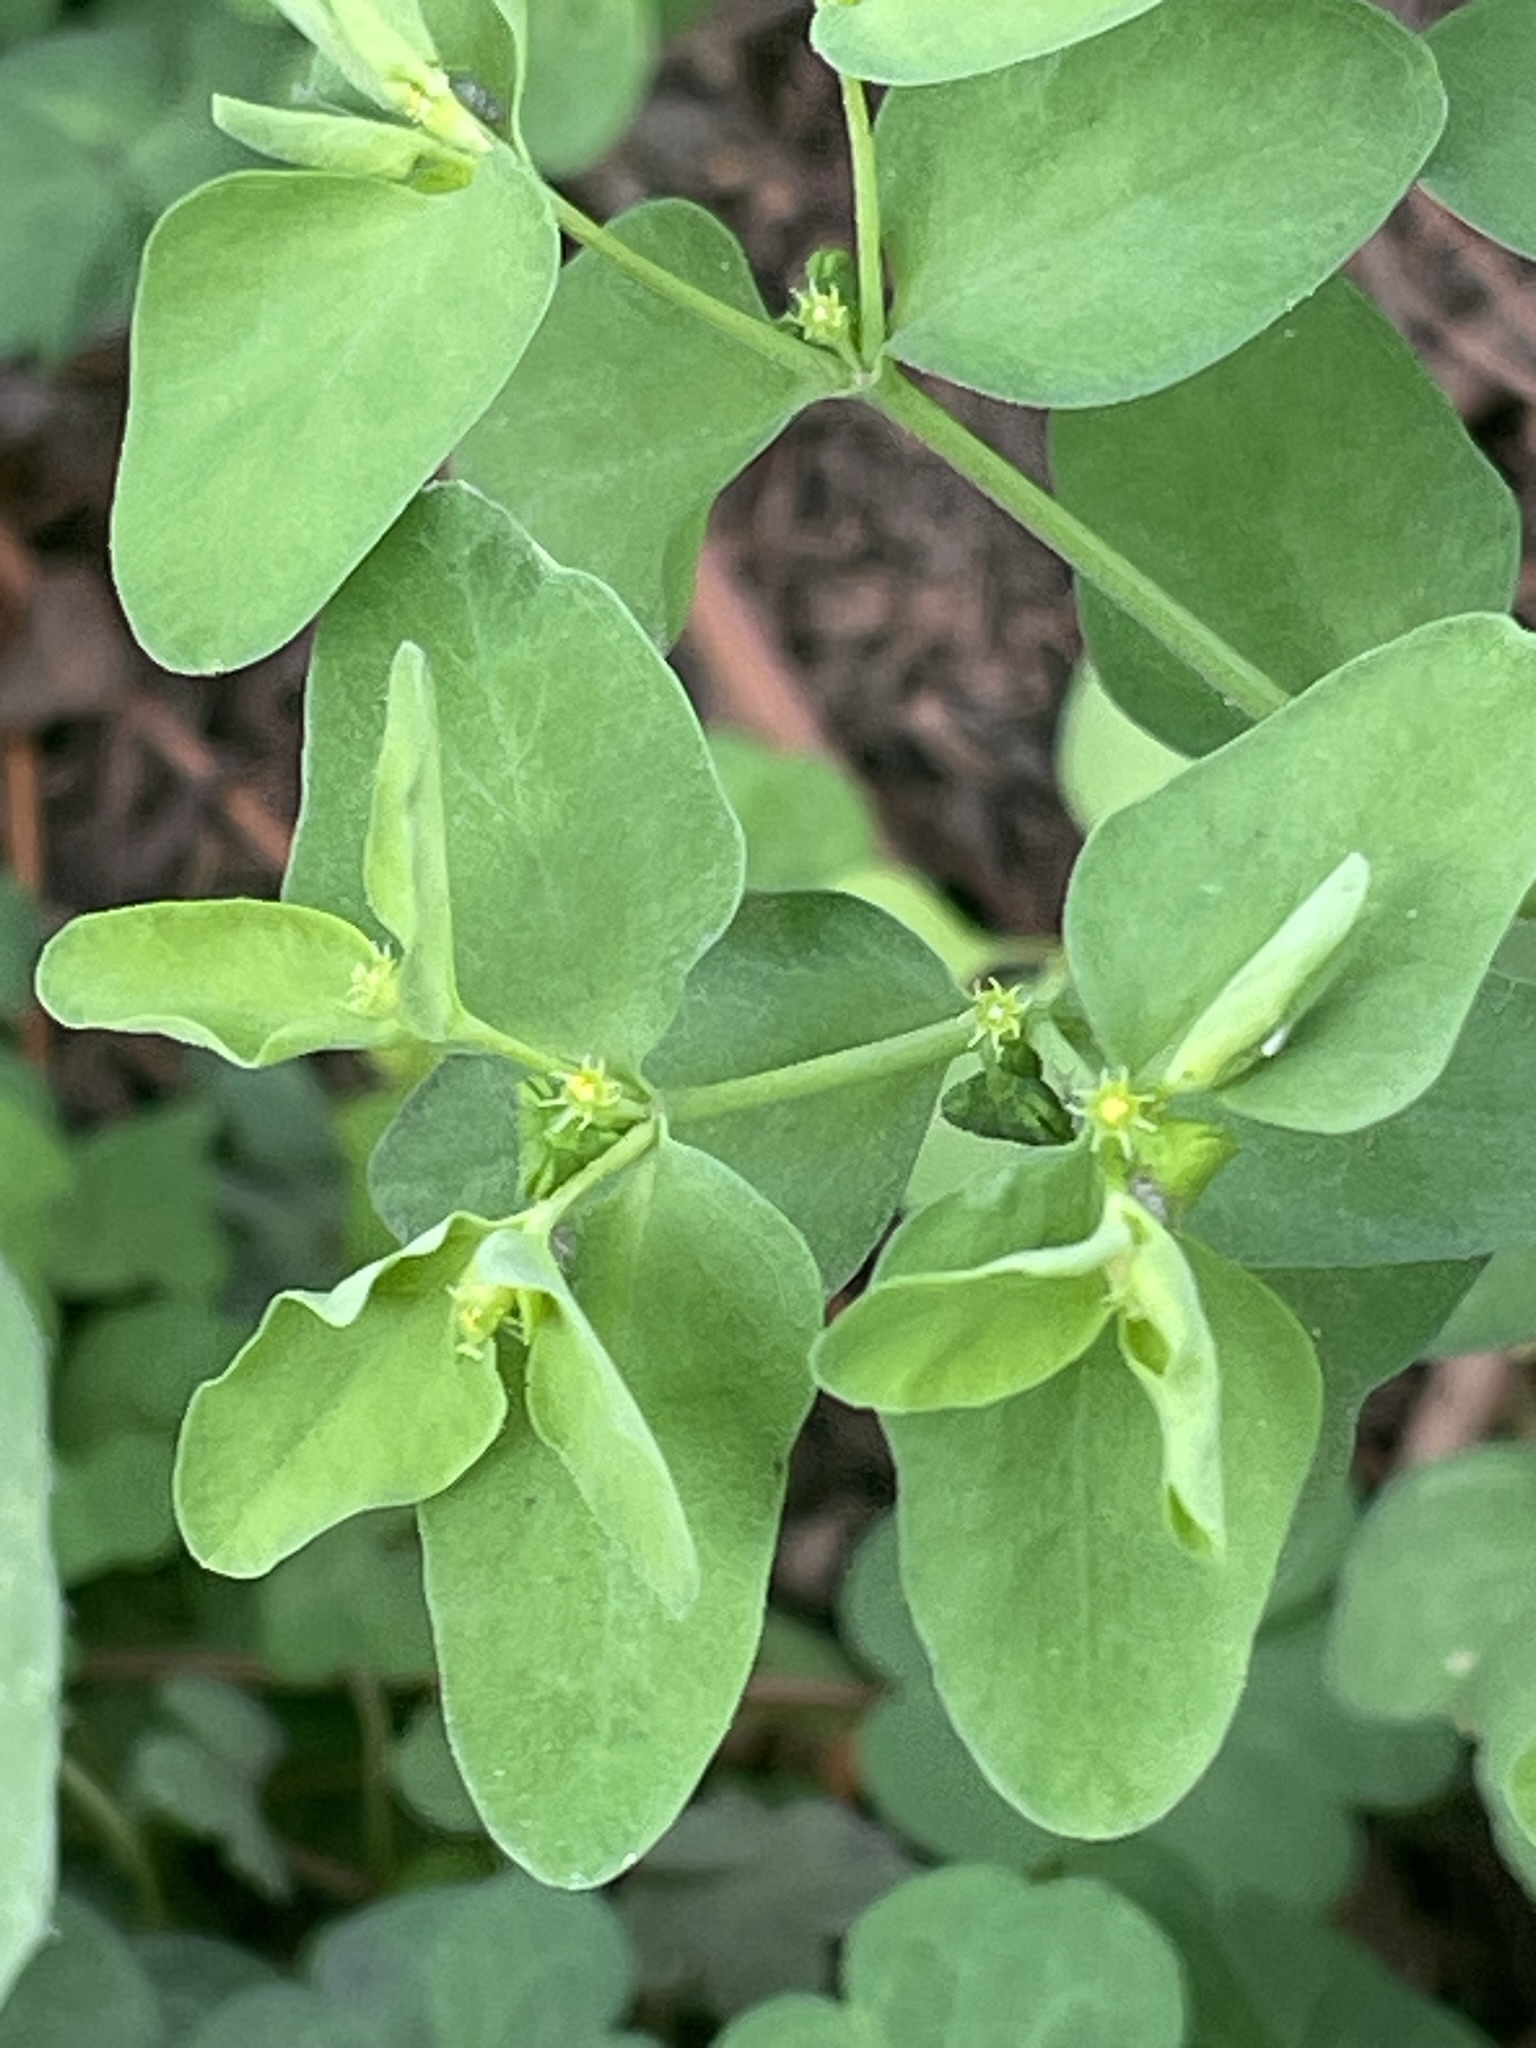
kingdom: Plantae
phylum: Tracheophyta
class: Magnoliopsida
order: Malpighiales
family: Euphorbiaceae
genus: Euphorbia
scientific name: Euphorbia peplus
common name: Petty spurge
